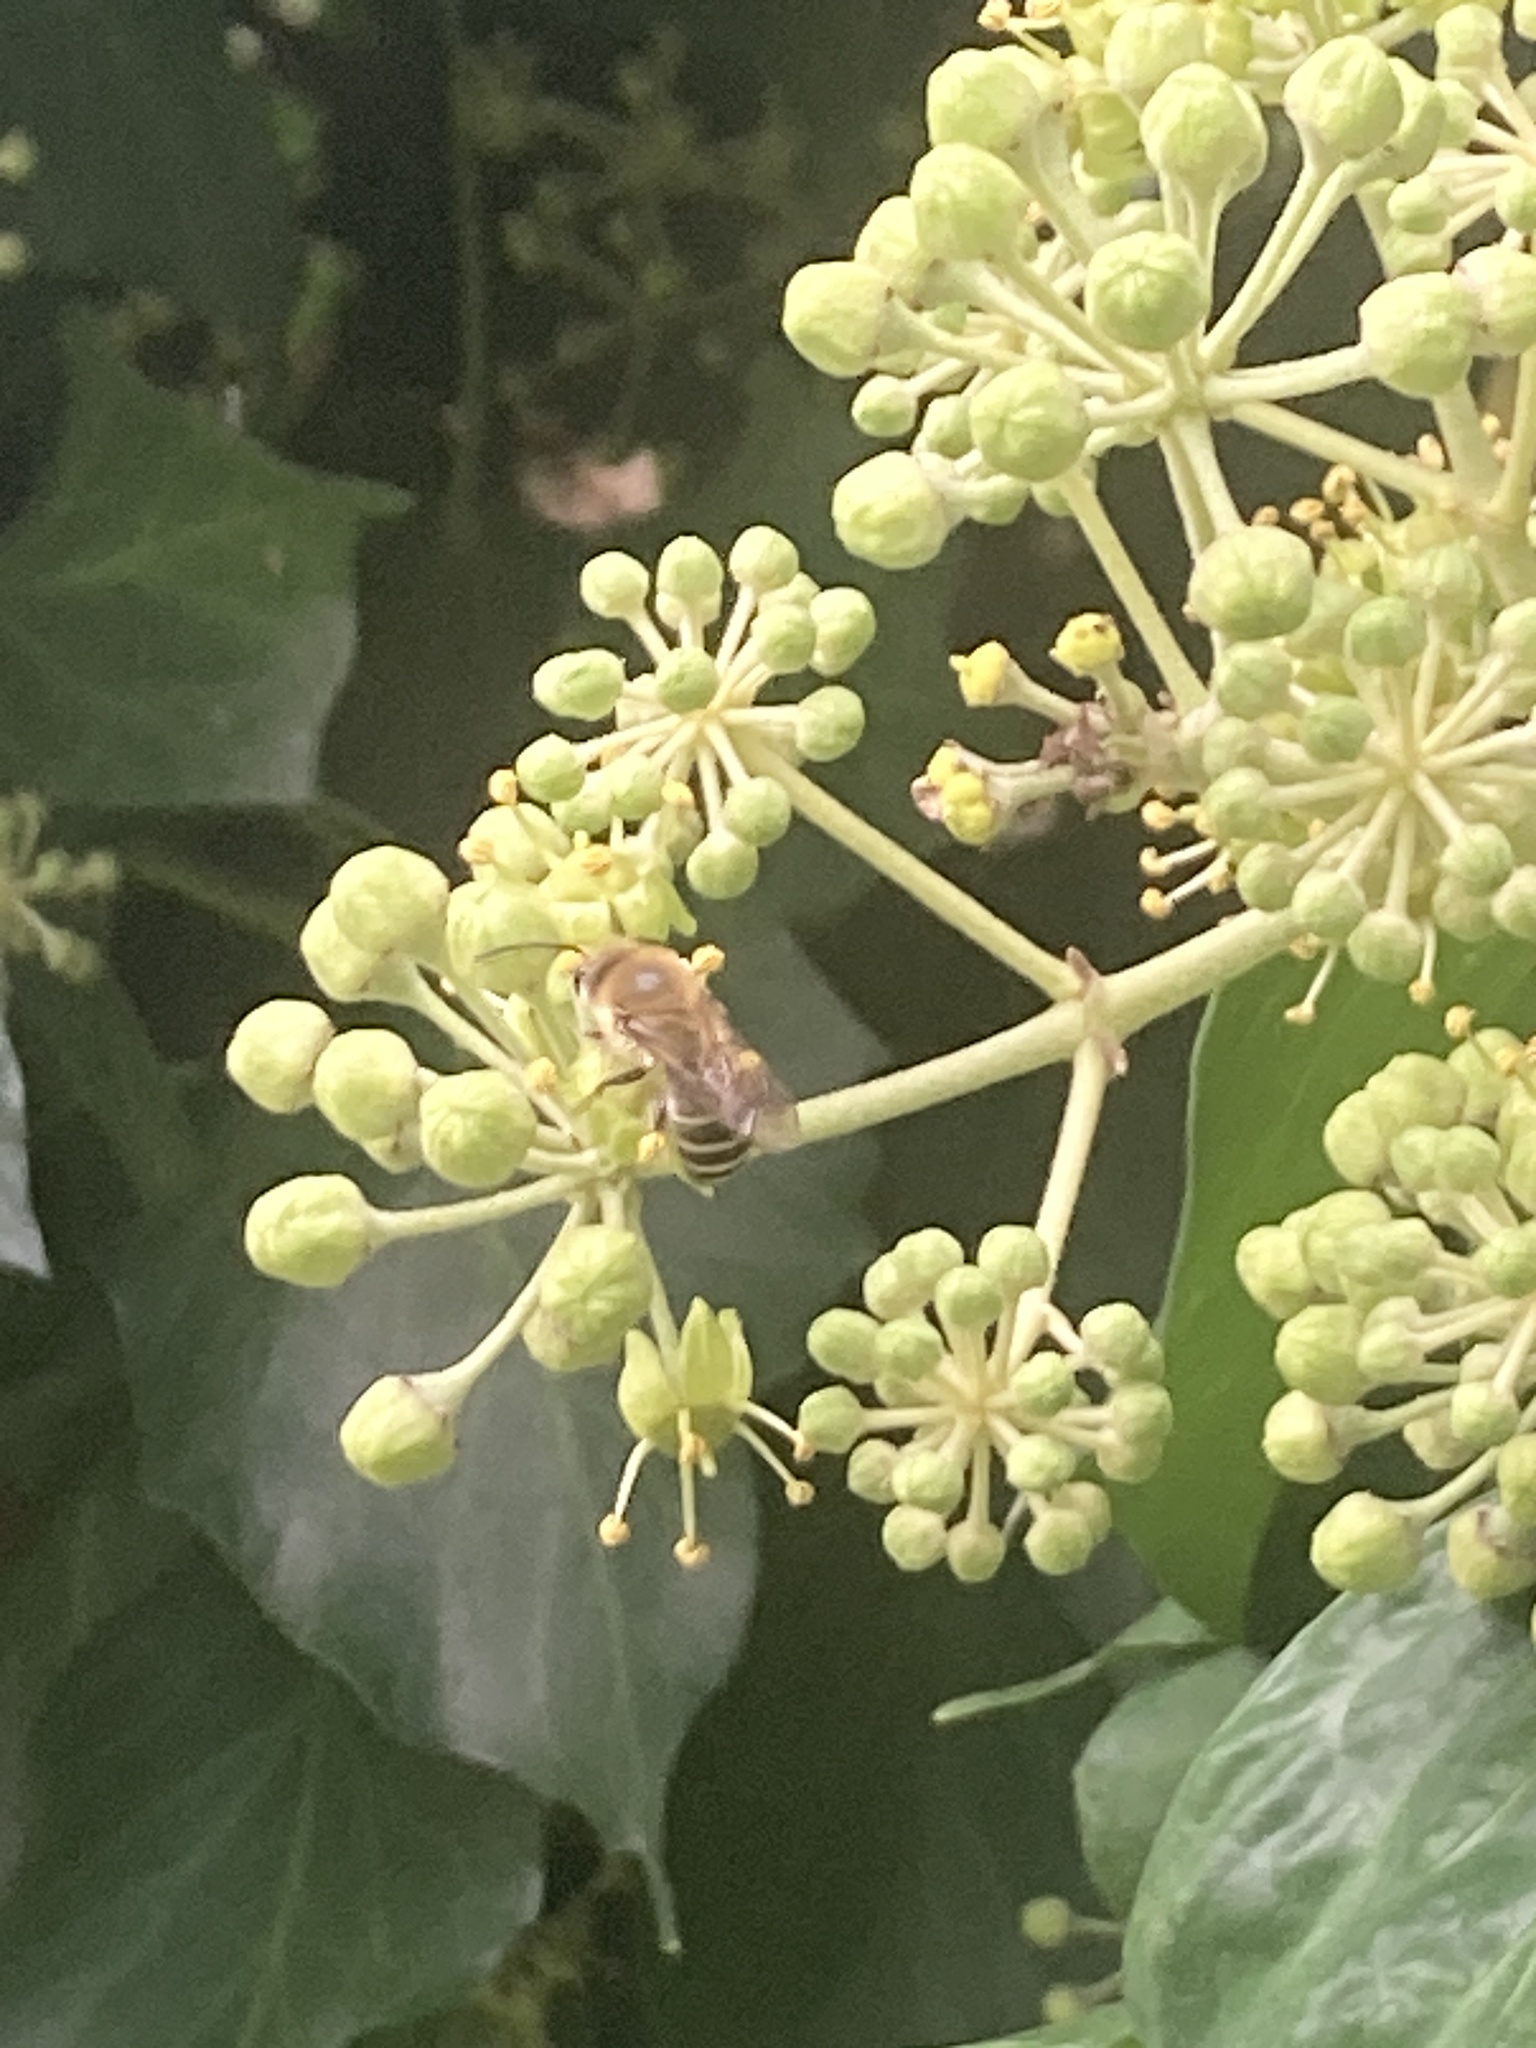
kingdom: Animalia
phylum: Arthropoda
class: Insecta
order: Hymenoptera
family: Colletidae
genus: Colletes
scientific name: Colletes hederae
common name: Ivy bee
